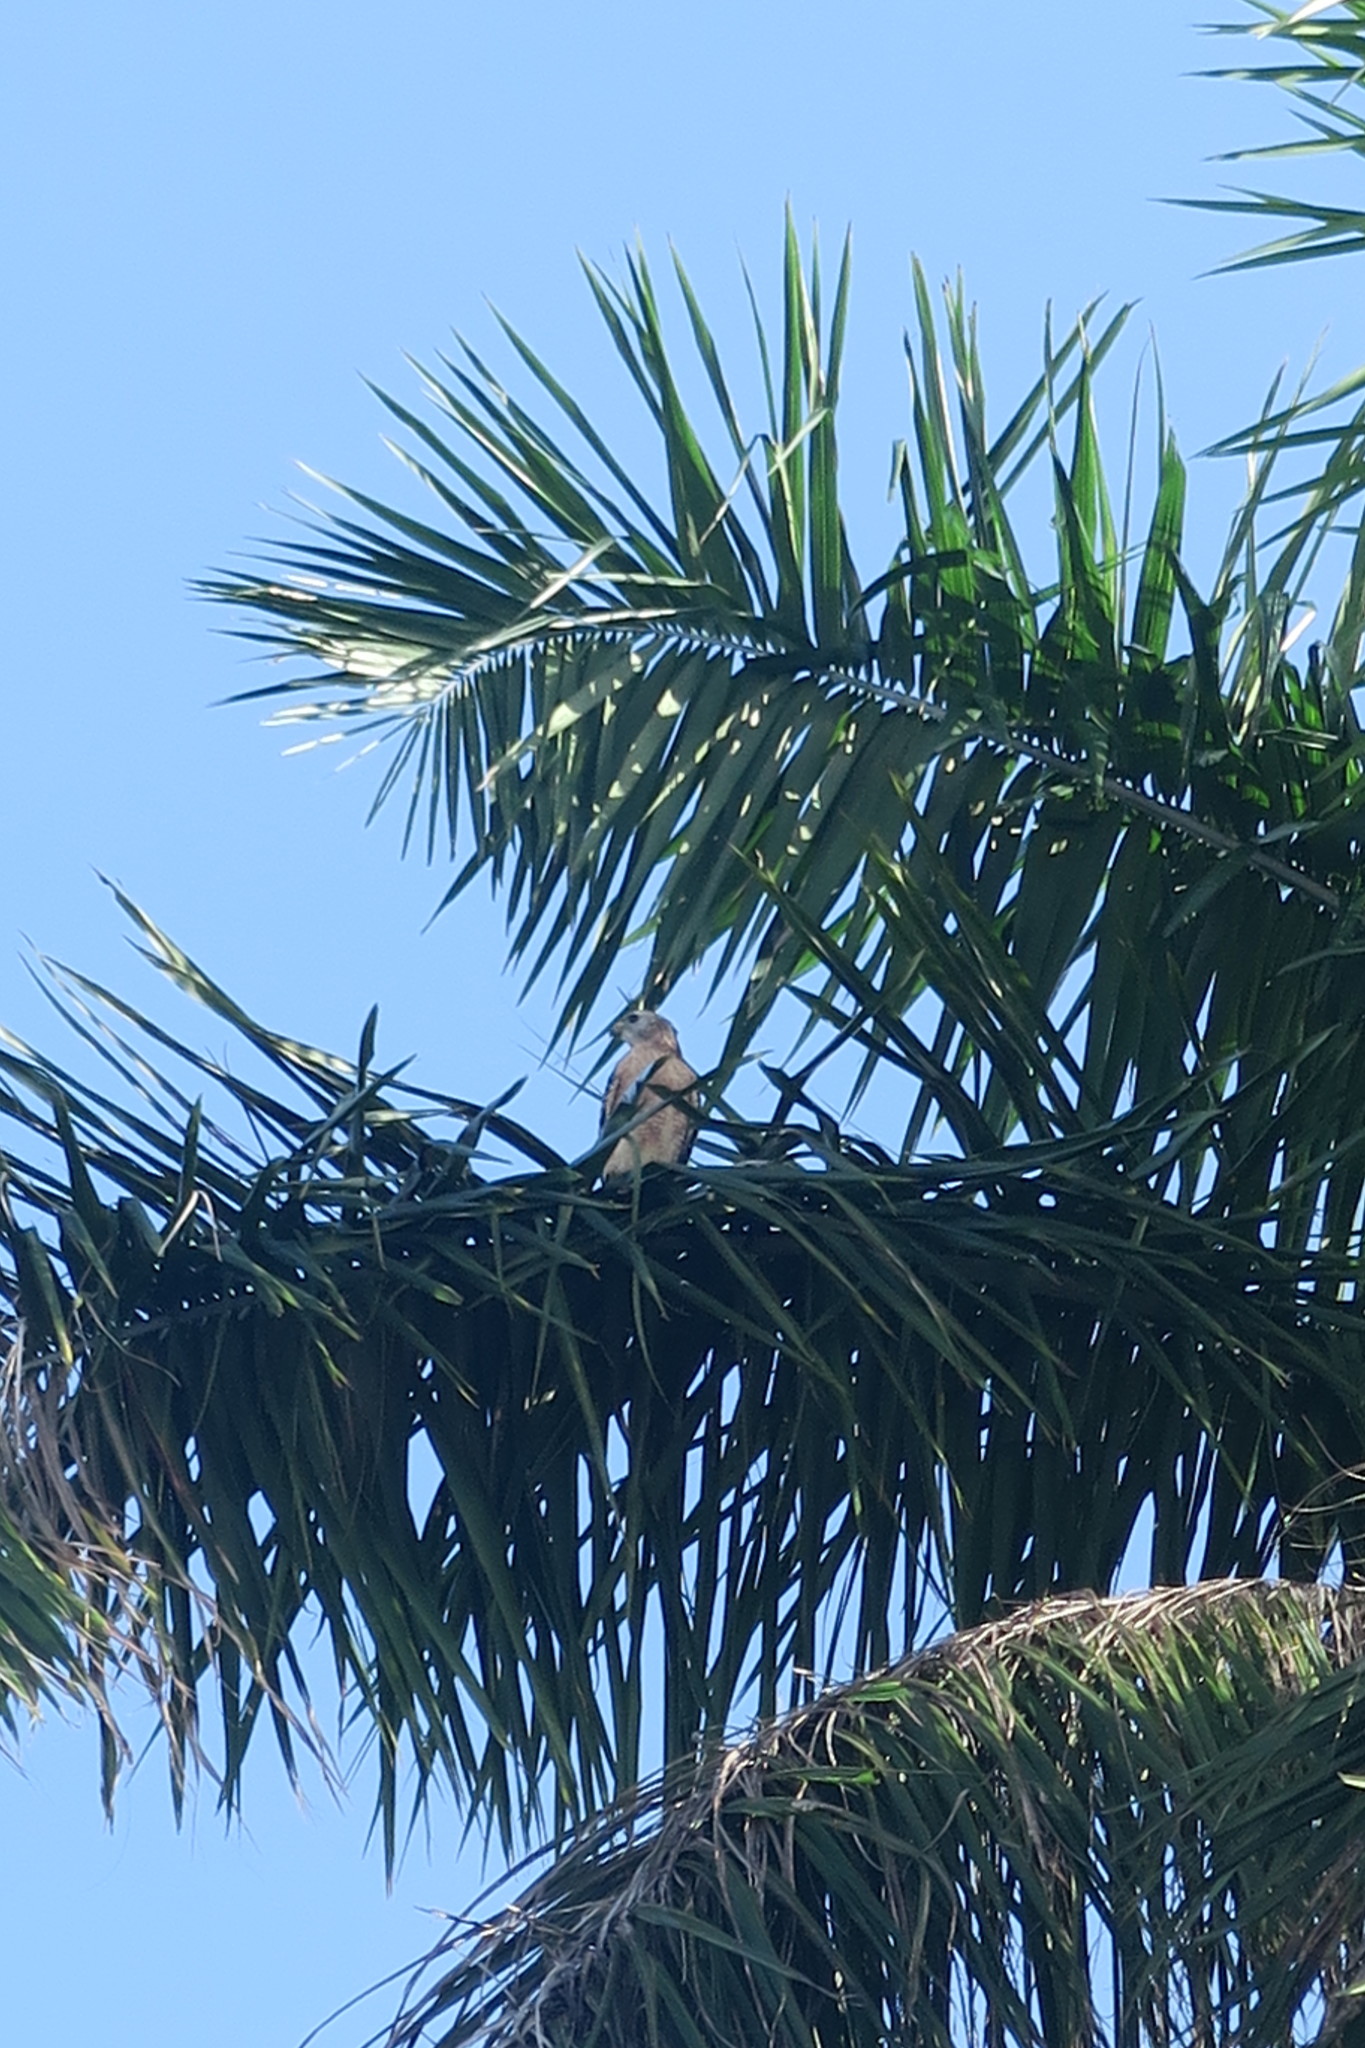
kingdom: Animalia
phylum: Chordata
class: Aves
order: Accipitriformes
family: Accipitridae
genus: Buteo
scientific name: Buteo lineatus
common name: Red-shouldered hawk
